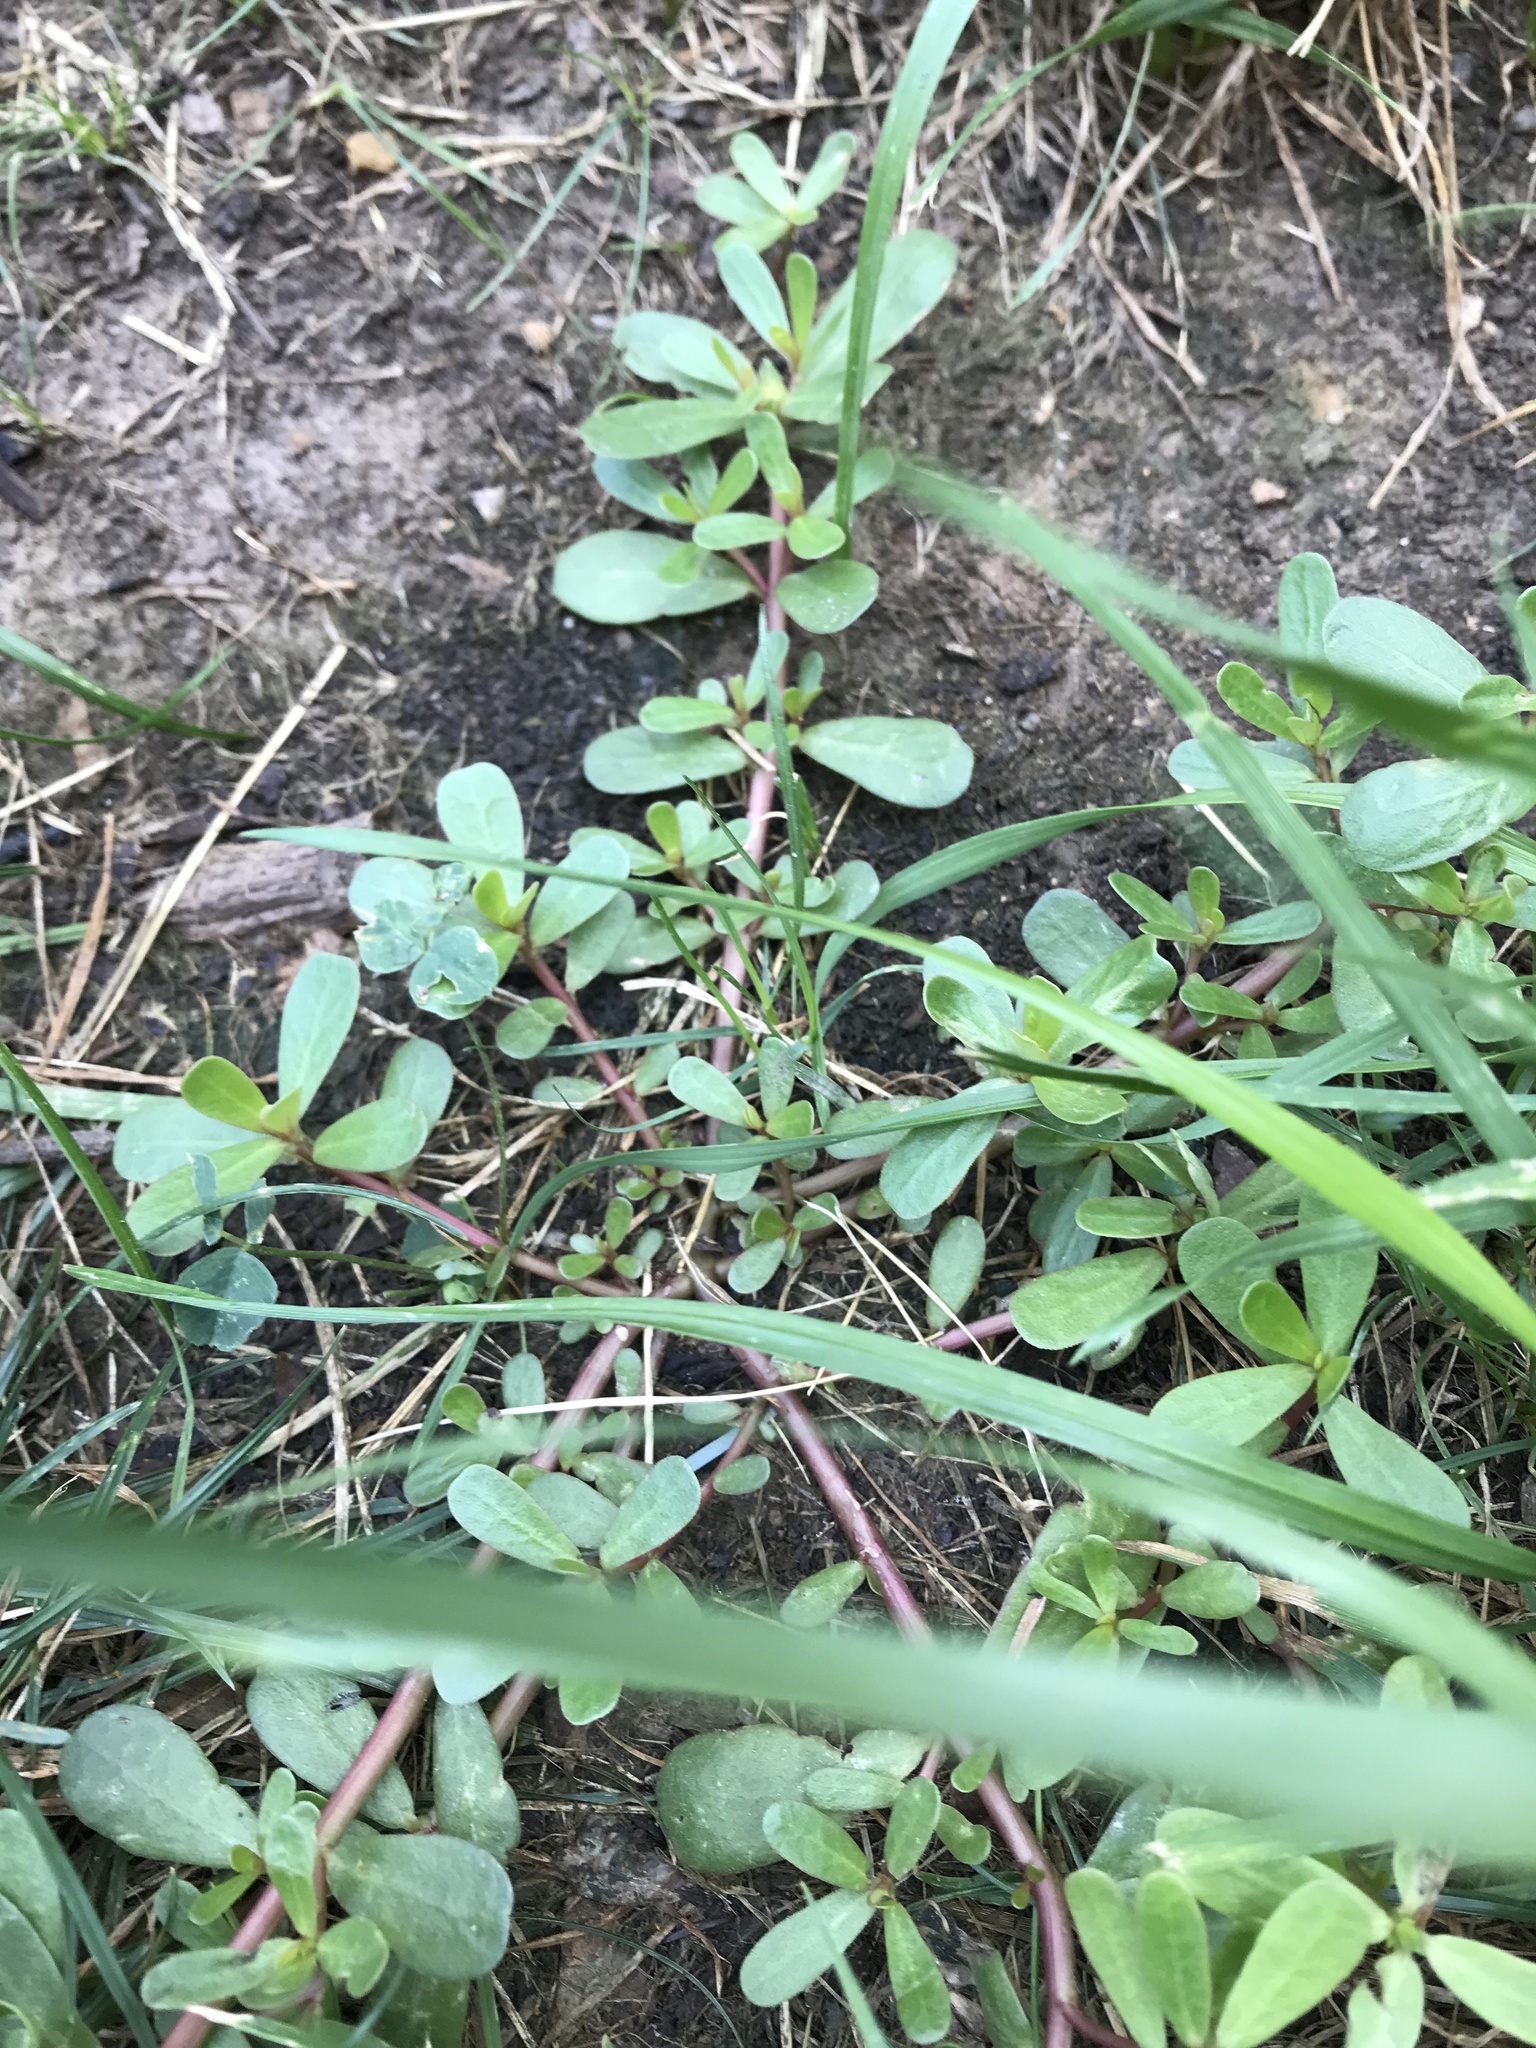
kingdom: Plantae
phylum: Tracheophyta
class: Magnoliopsida
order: Caryophyllales
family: Portulacaceae
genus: Portulaca
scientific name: Portulaca oleracea
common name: Common purslane
